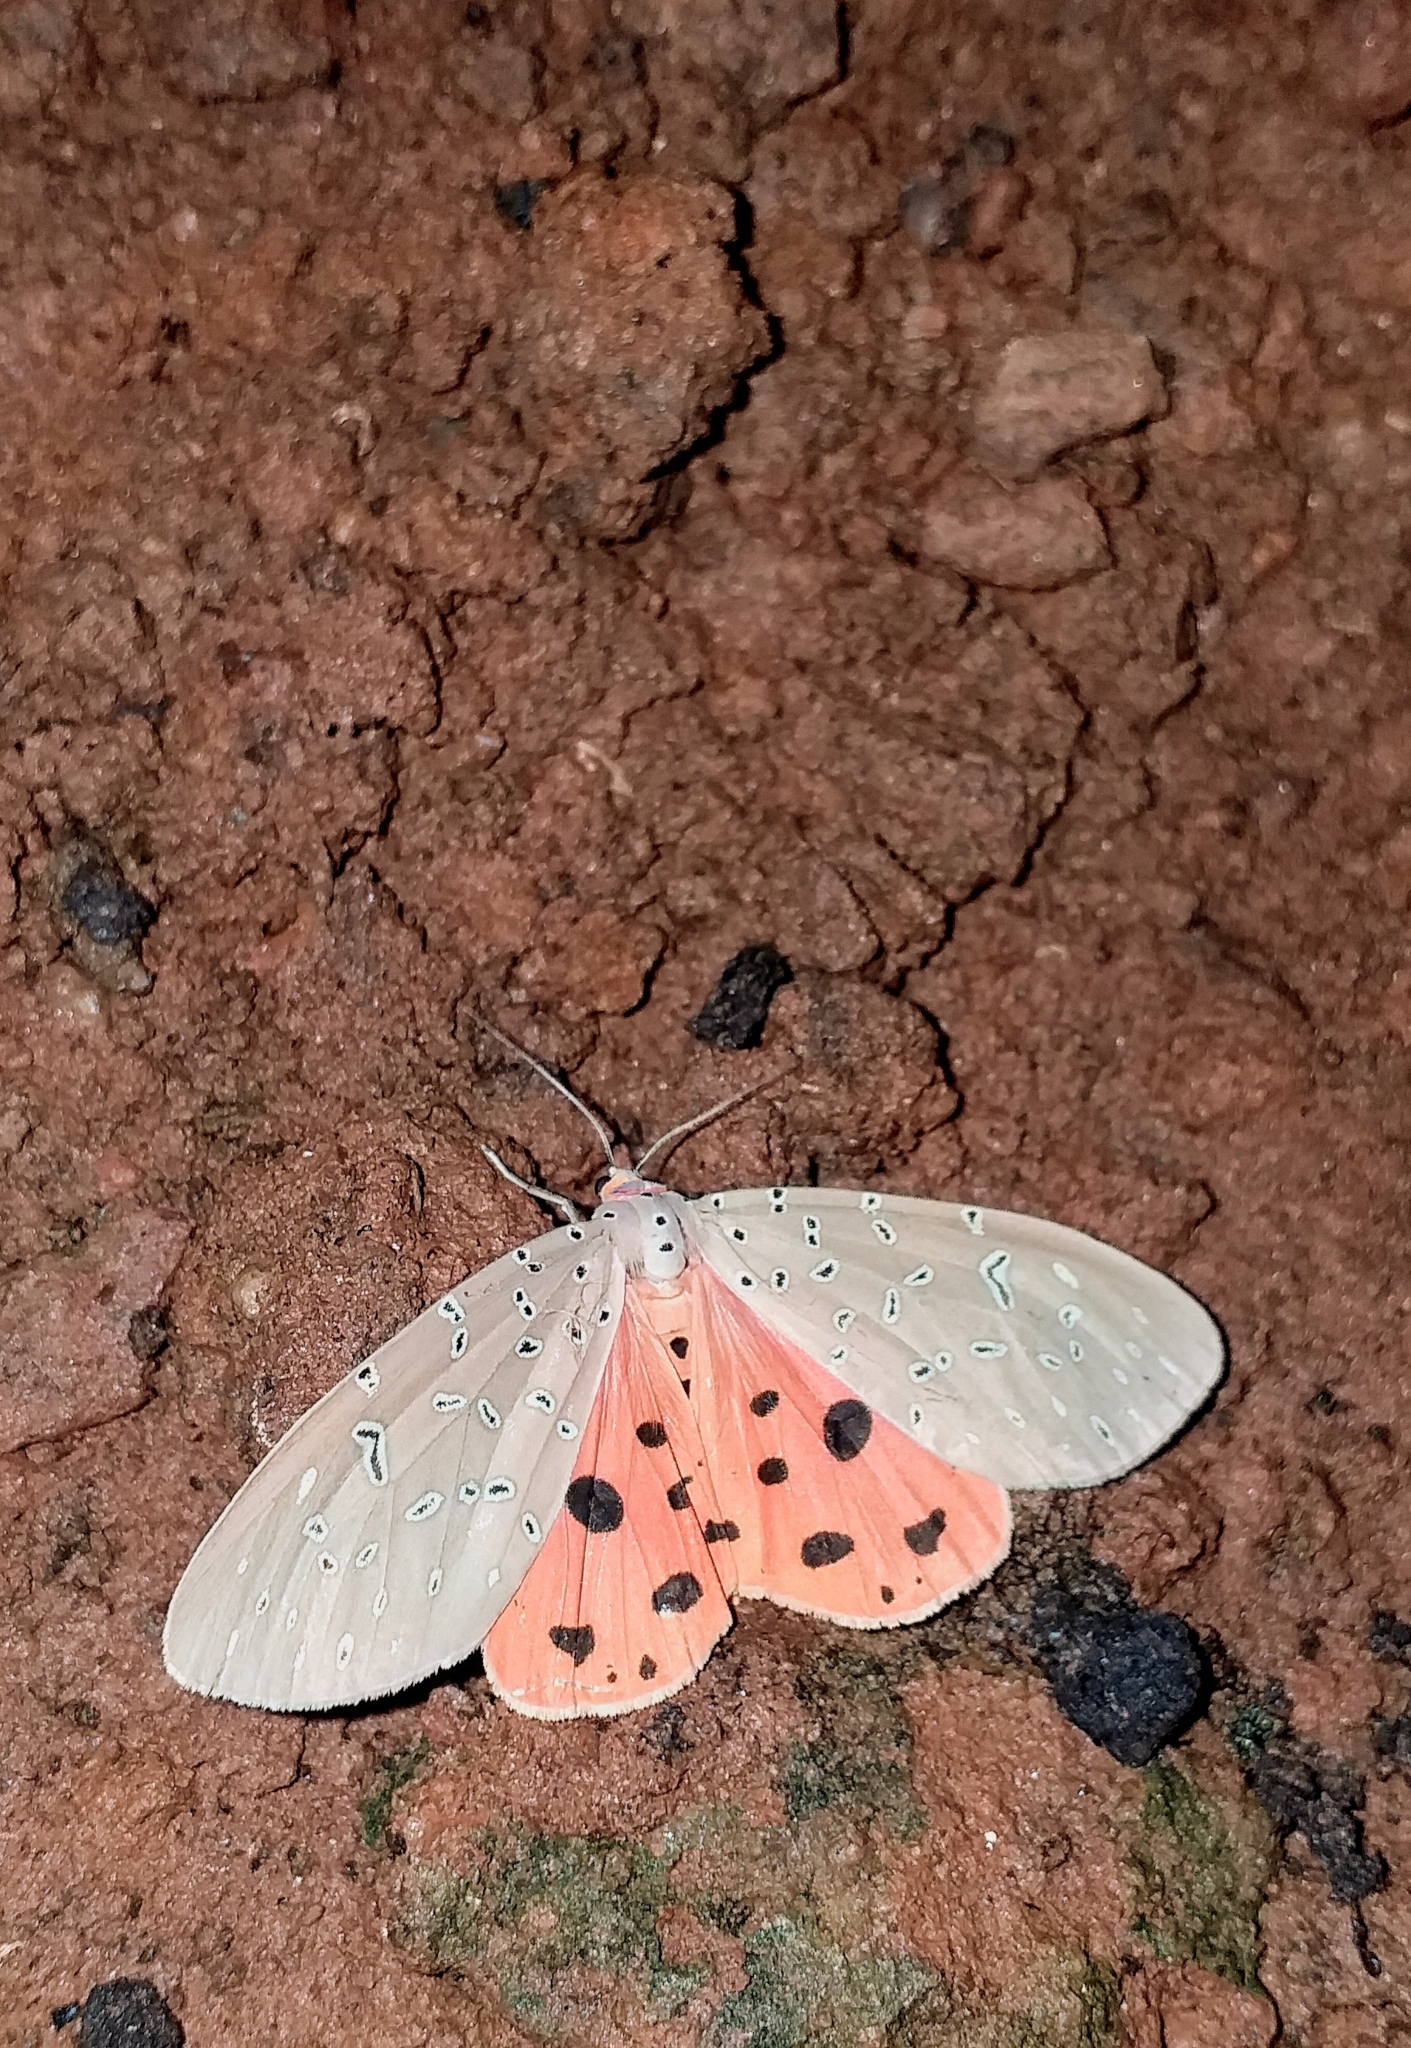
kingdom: Animalia
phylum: Arthropoda
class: Insecta
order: Lepidoptera
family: Erebidae
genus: Mangina
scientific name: Mangina argus
